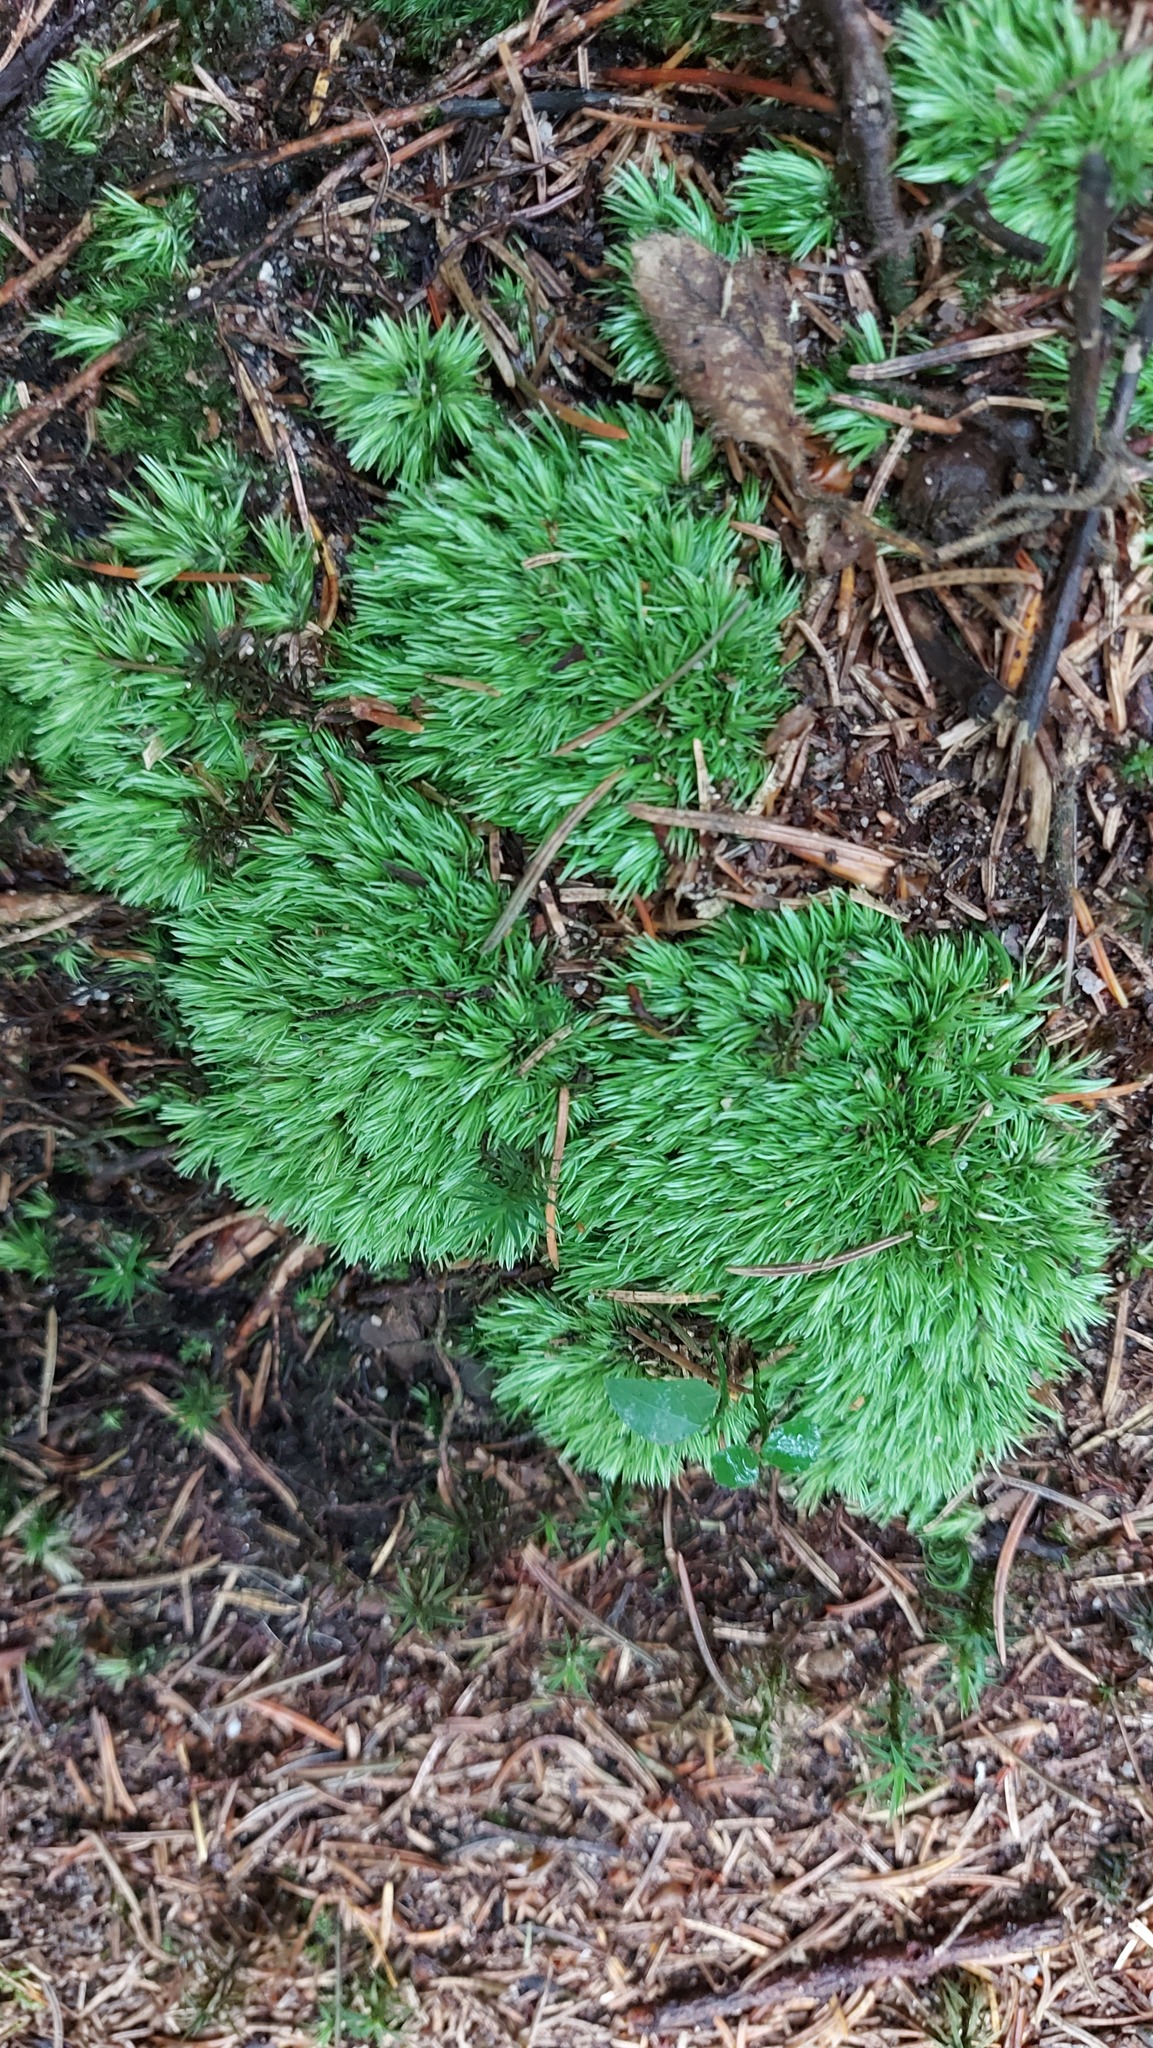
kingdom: Plantae
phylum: Bryophyta
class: Bryopsida
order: Dicranales
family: Leucobryaceae
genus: Leucobryum
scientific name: Leucobryum glaucum
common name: Large white-moss
